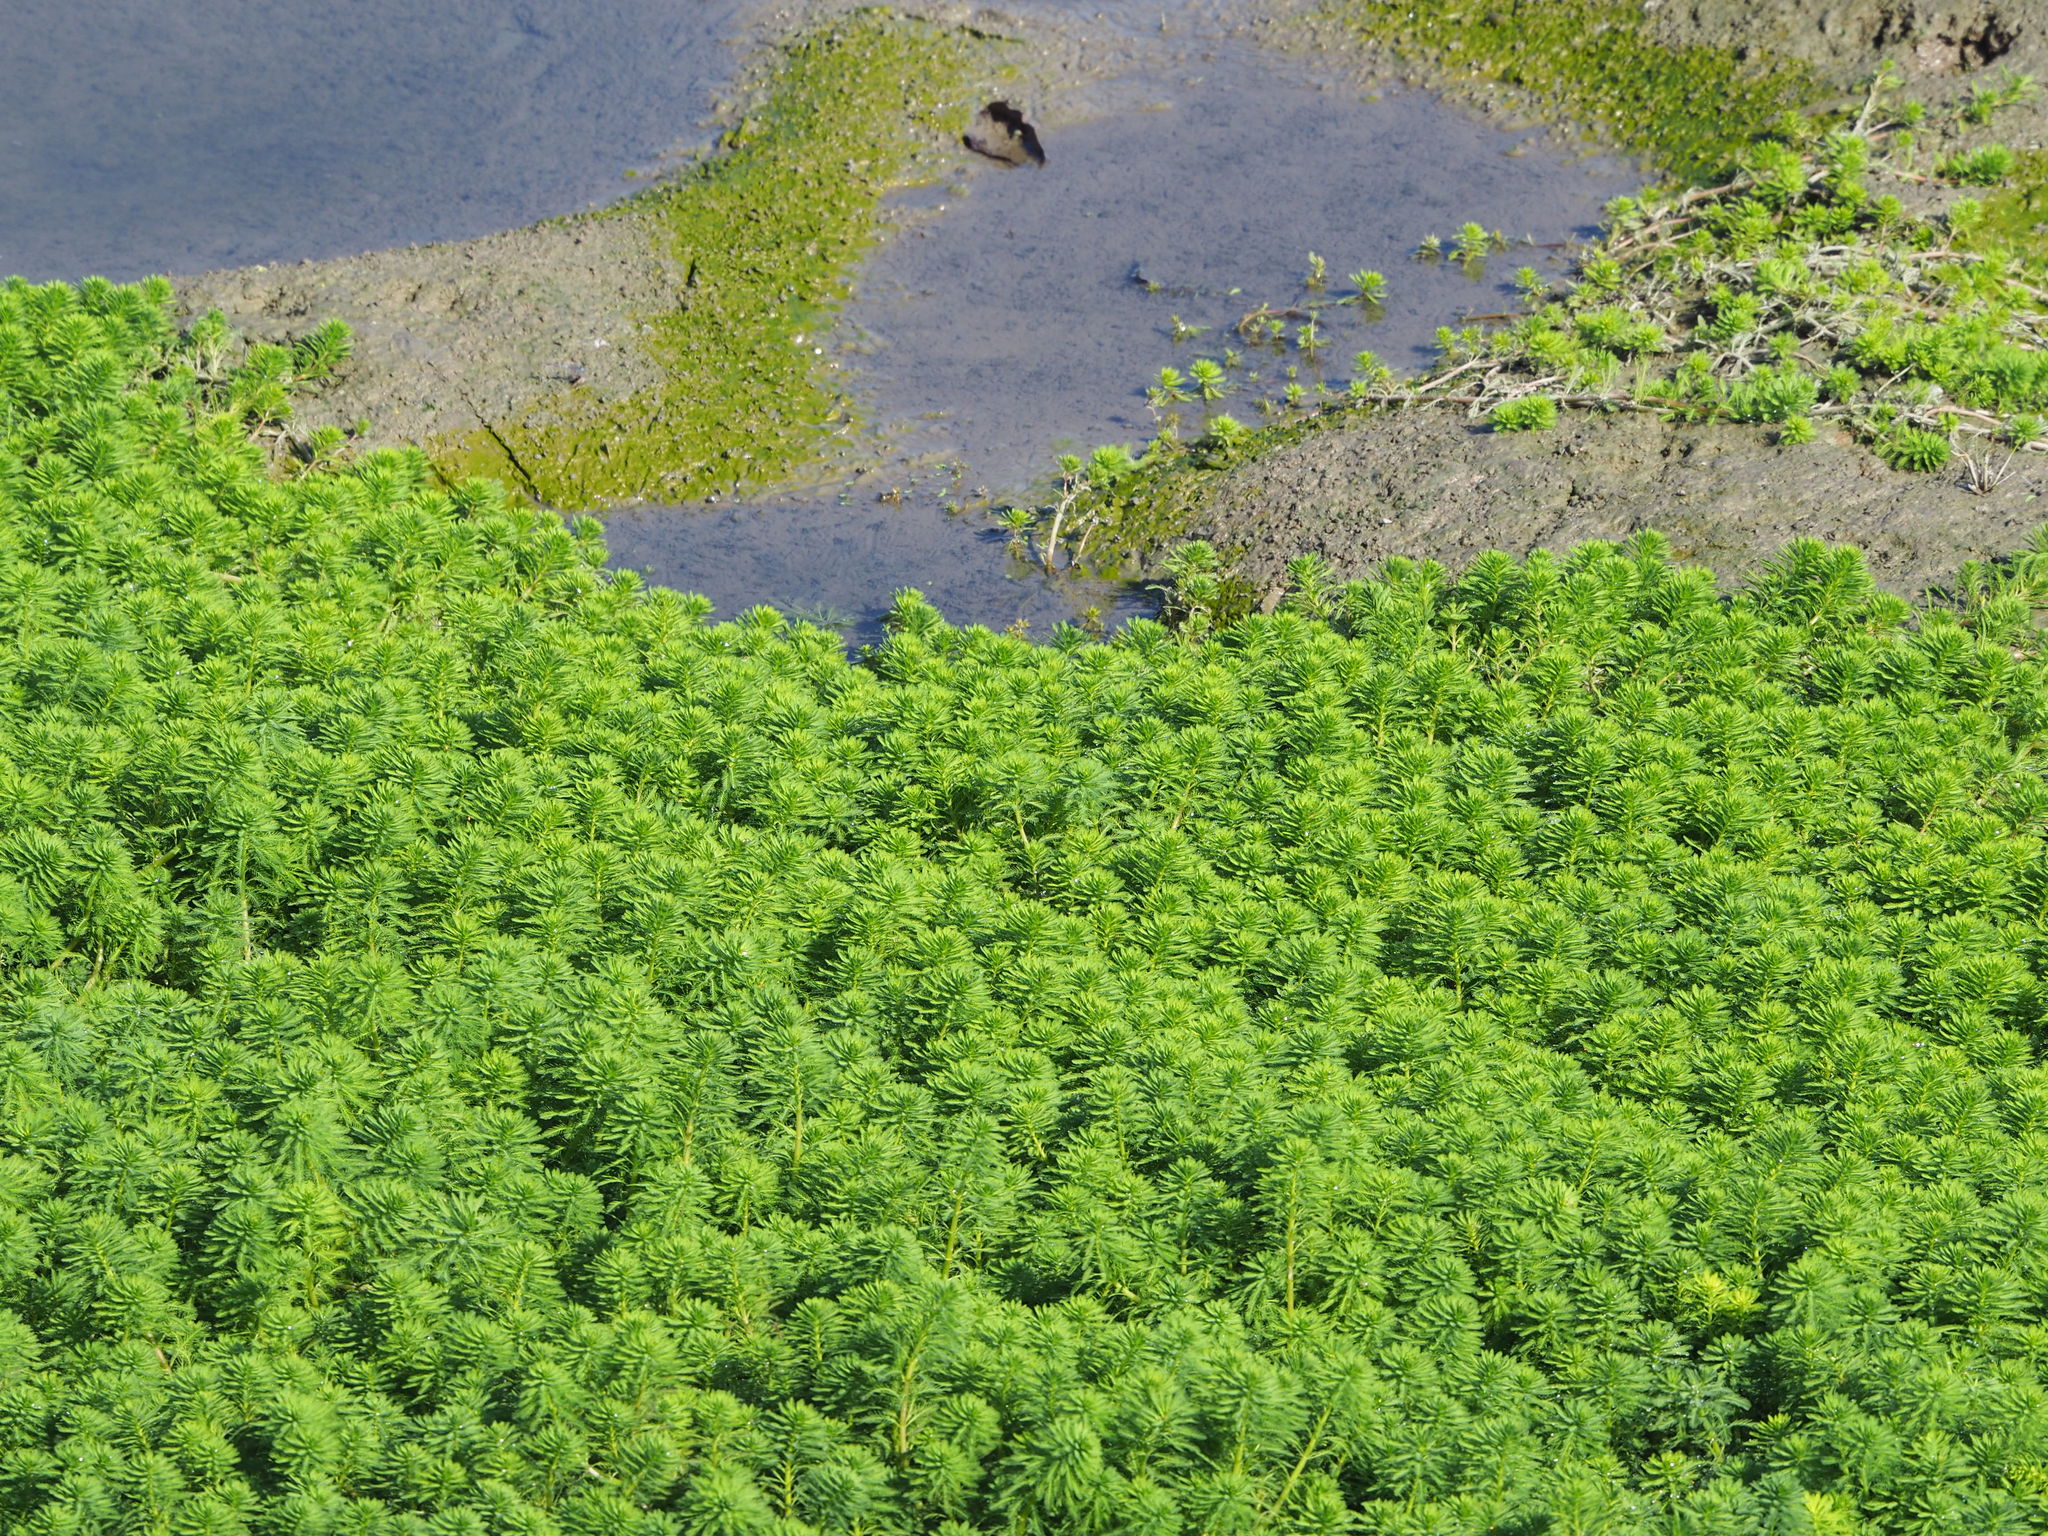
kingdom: Plantae
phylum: Tracheophyta
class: Magnoliopsida
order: Saxifragales
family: Haloragaceae
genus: Myriophyllum
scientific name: Myriophyllum aquaticum
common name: Parrot's feather
